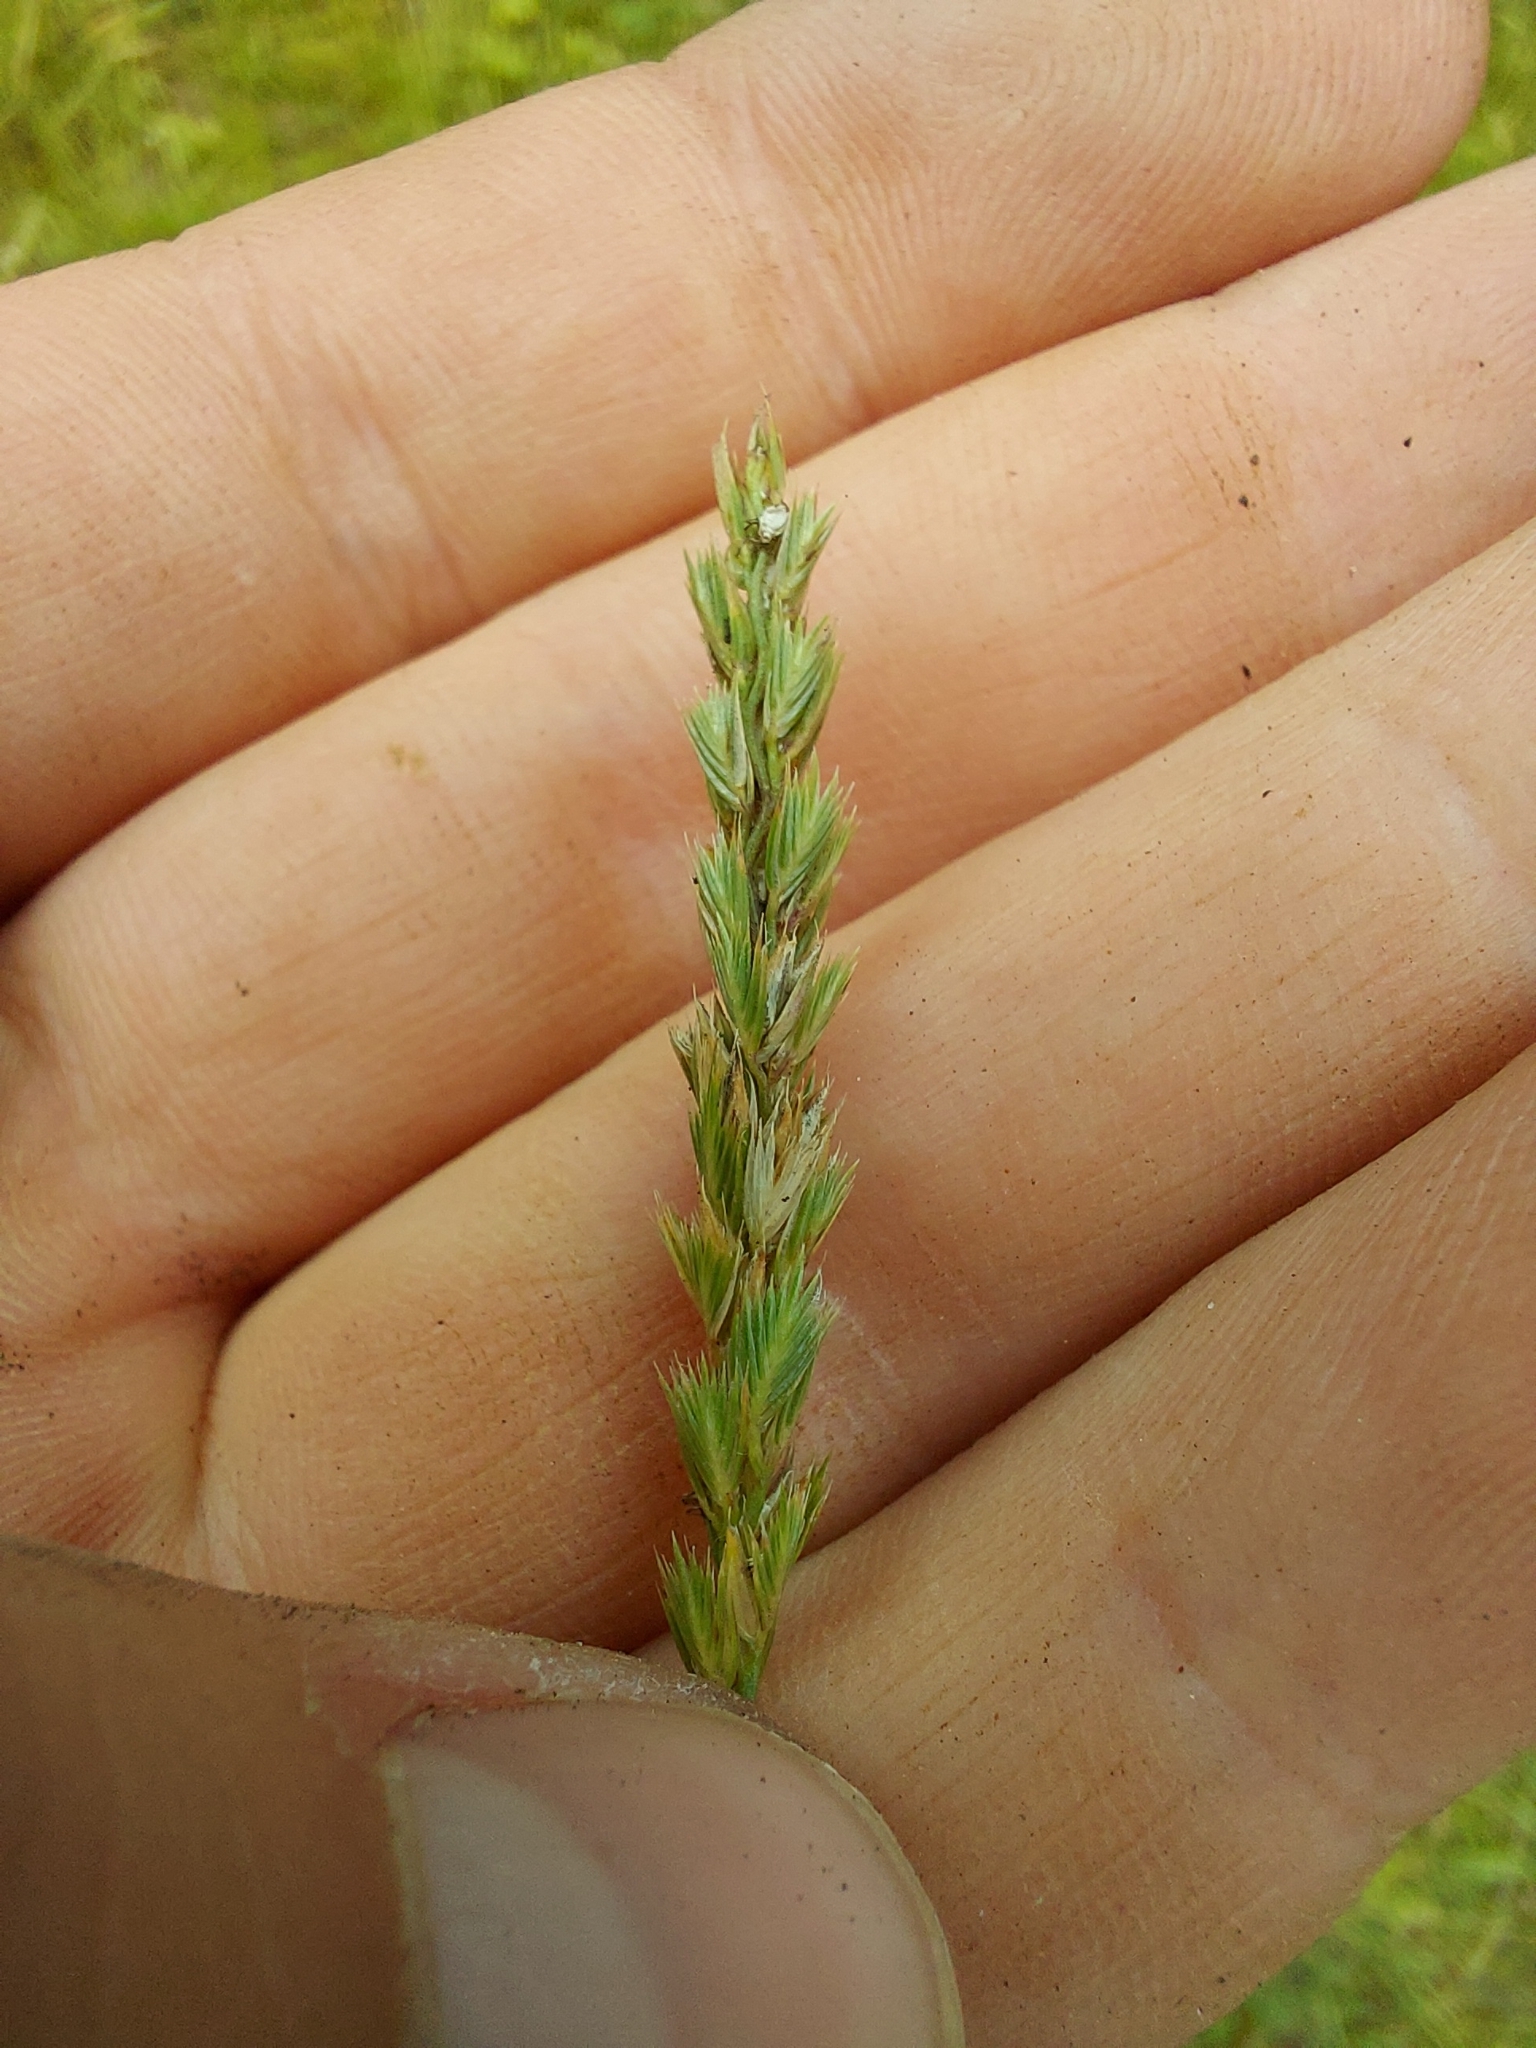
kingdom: Plantae
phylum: Tracheophyta
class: Liliopsida
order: Poales
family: Poaceae
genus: Cynosurus
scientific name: Cynosurus cristatus
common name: Crested dog's-tail
